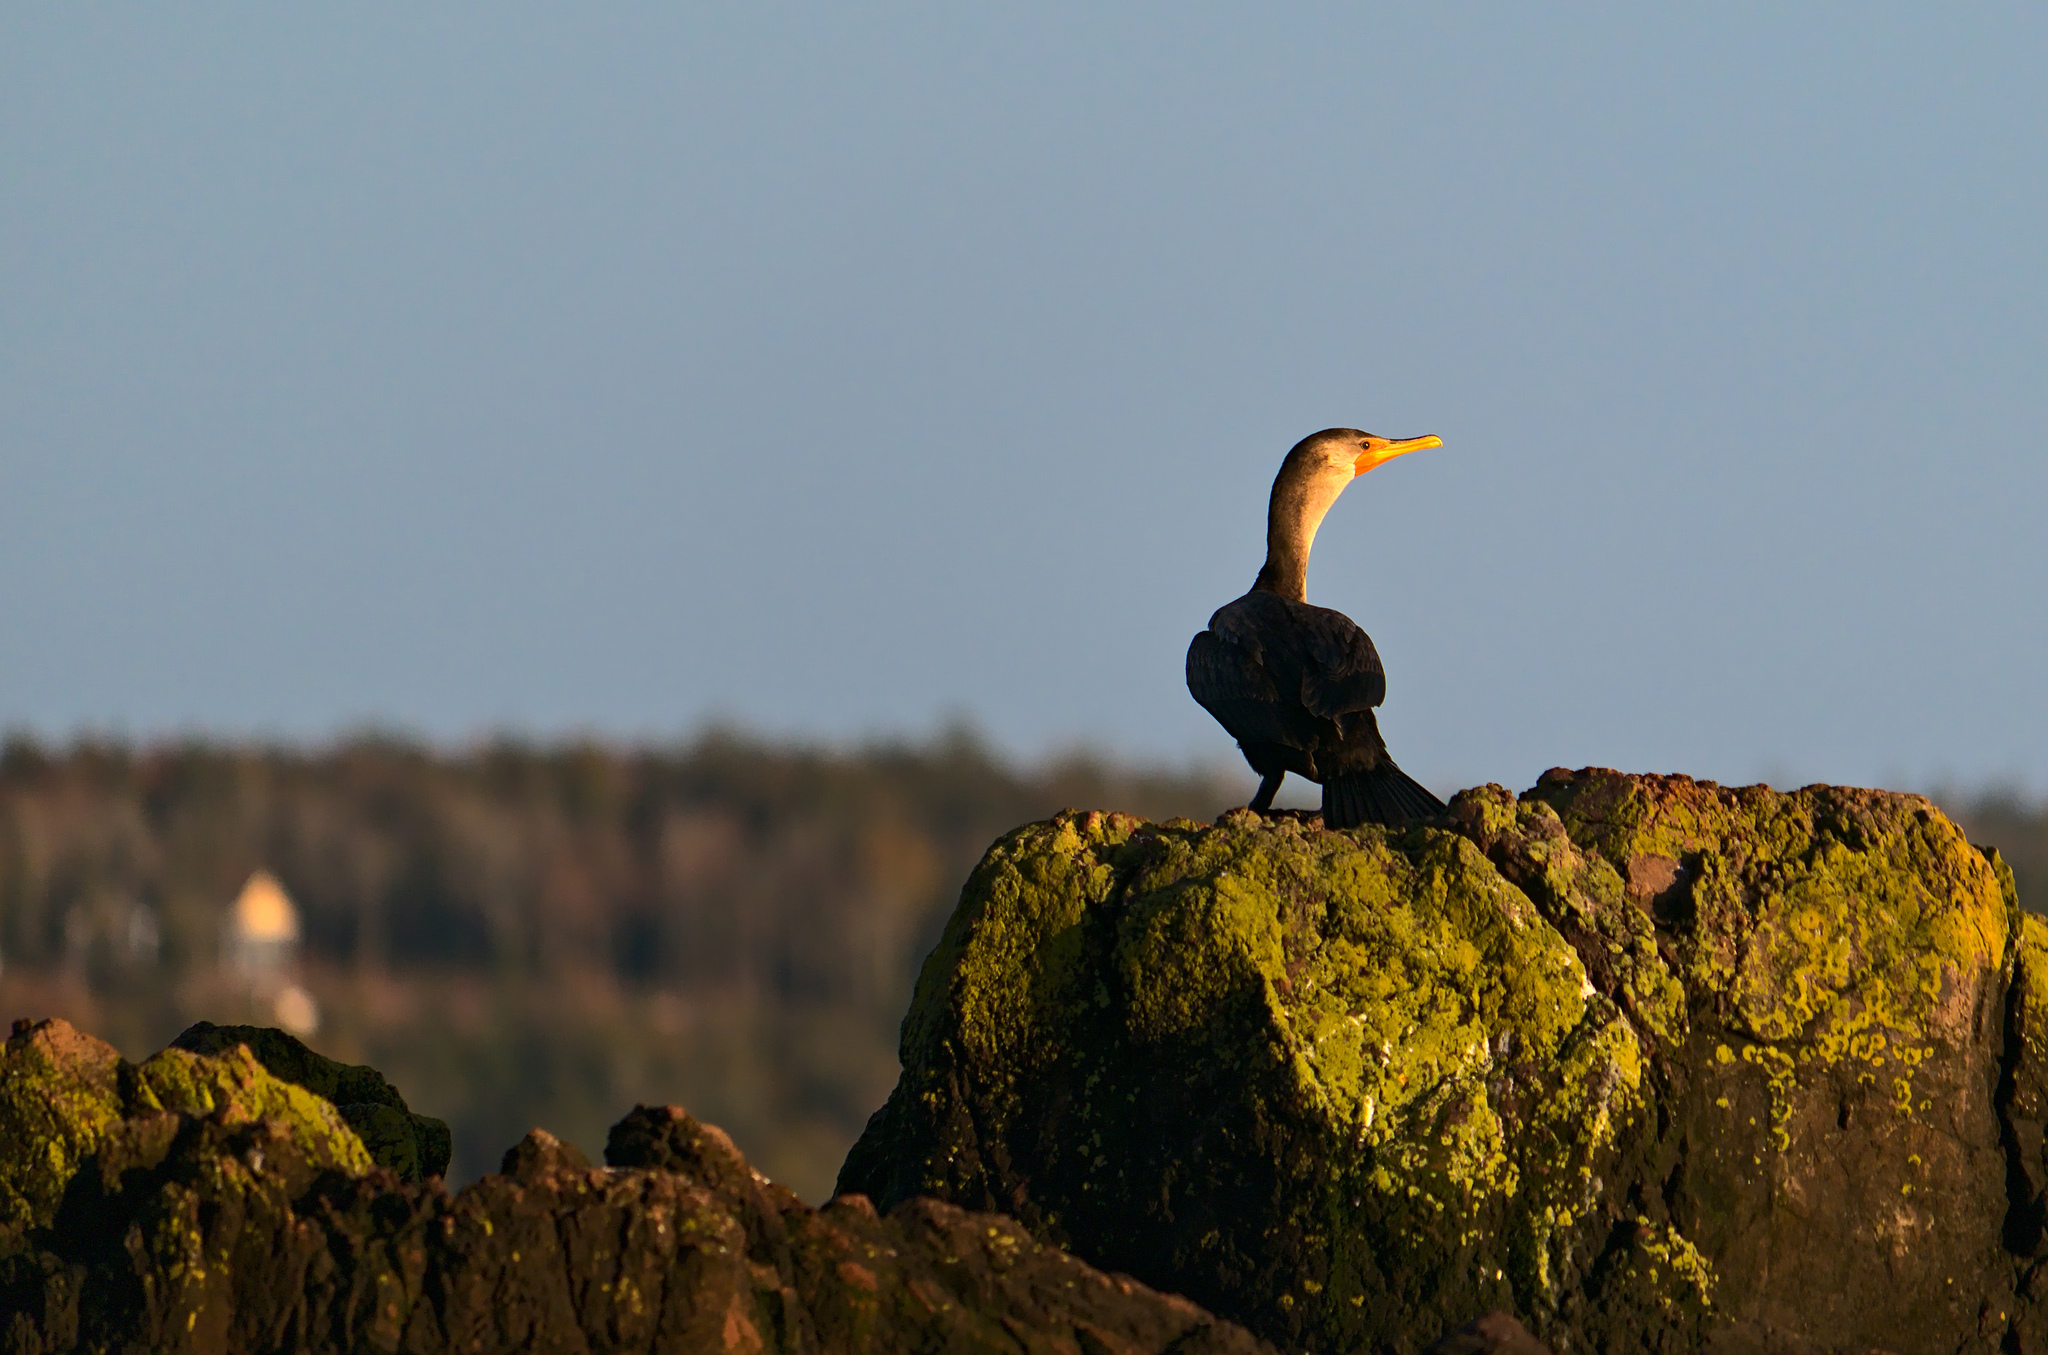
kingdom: Animalia
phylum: Chordata
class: Aves
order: Suliformes
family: Phalacrocoracidae
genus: Phalacrocorax
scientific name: Phalacrocorax auritus
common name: Double-crested cormorant
